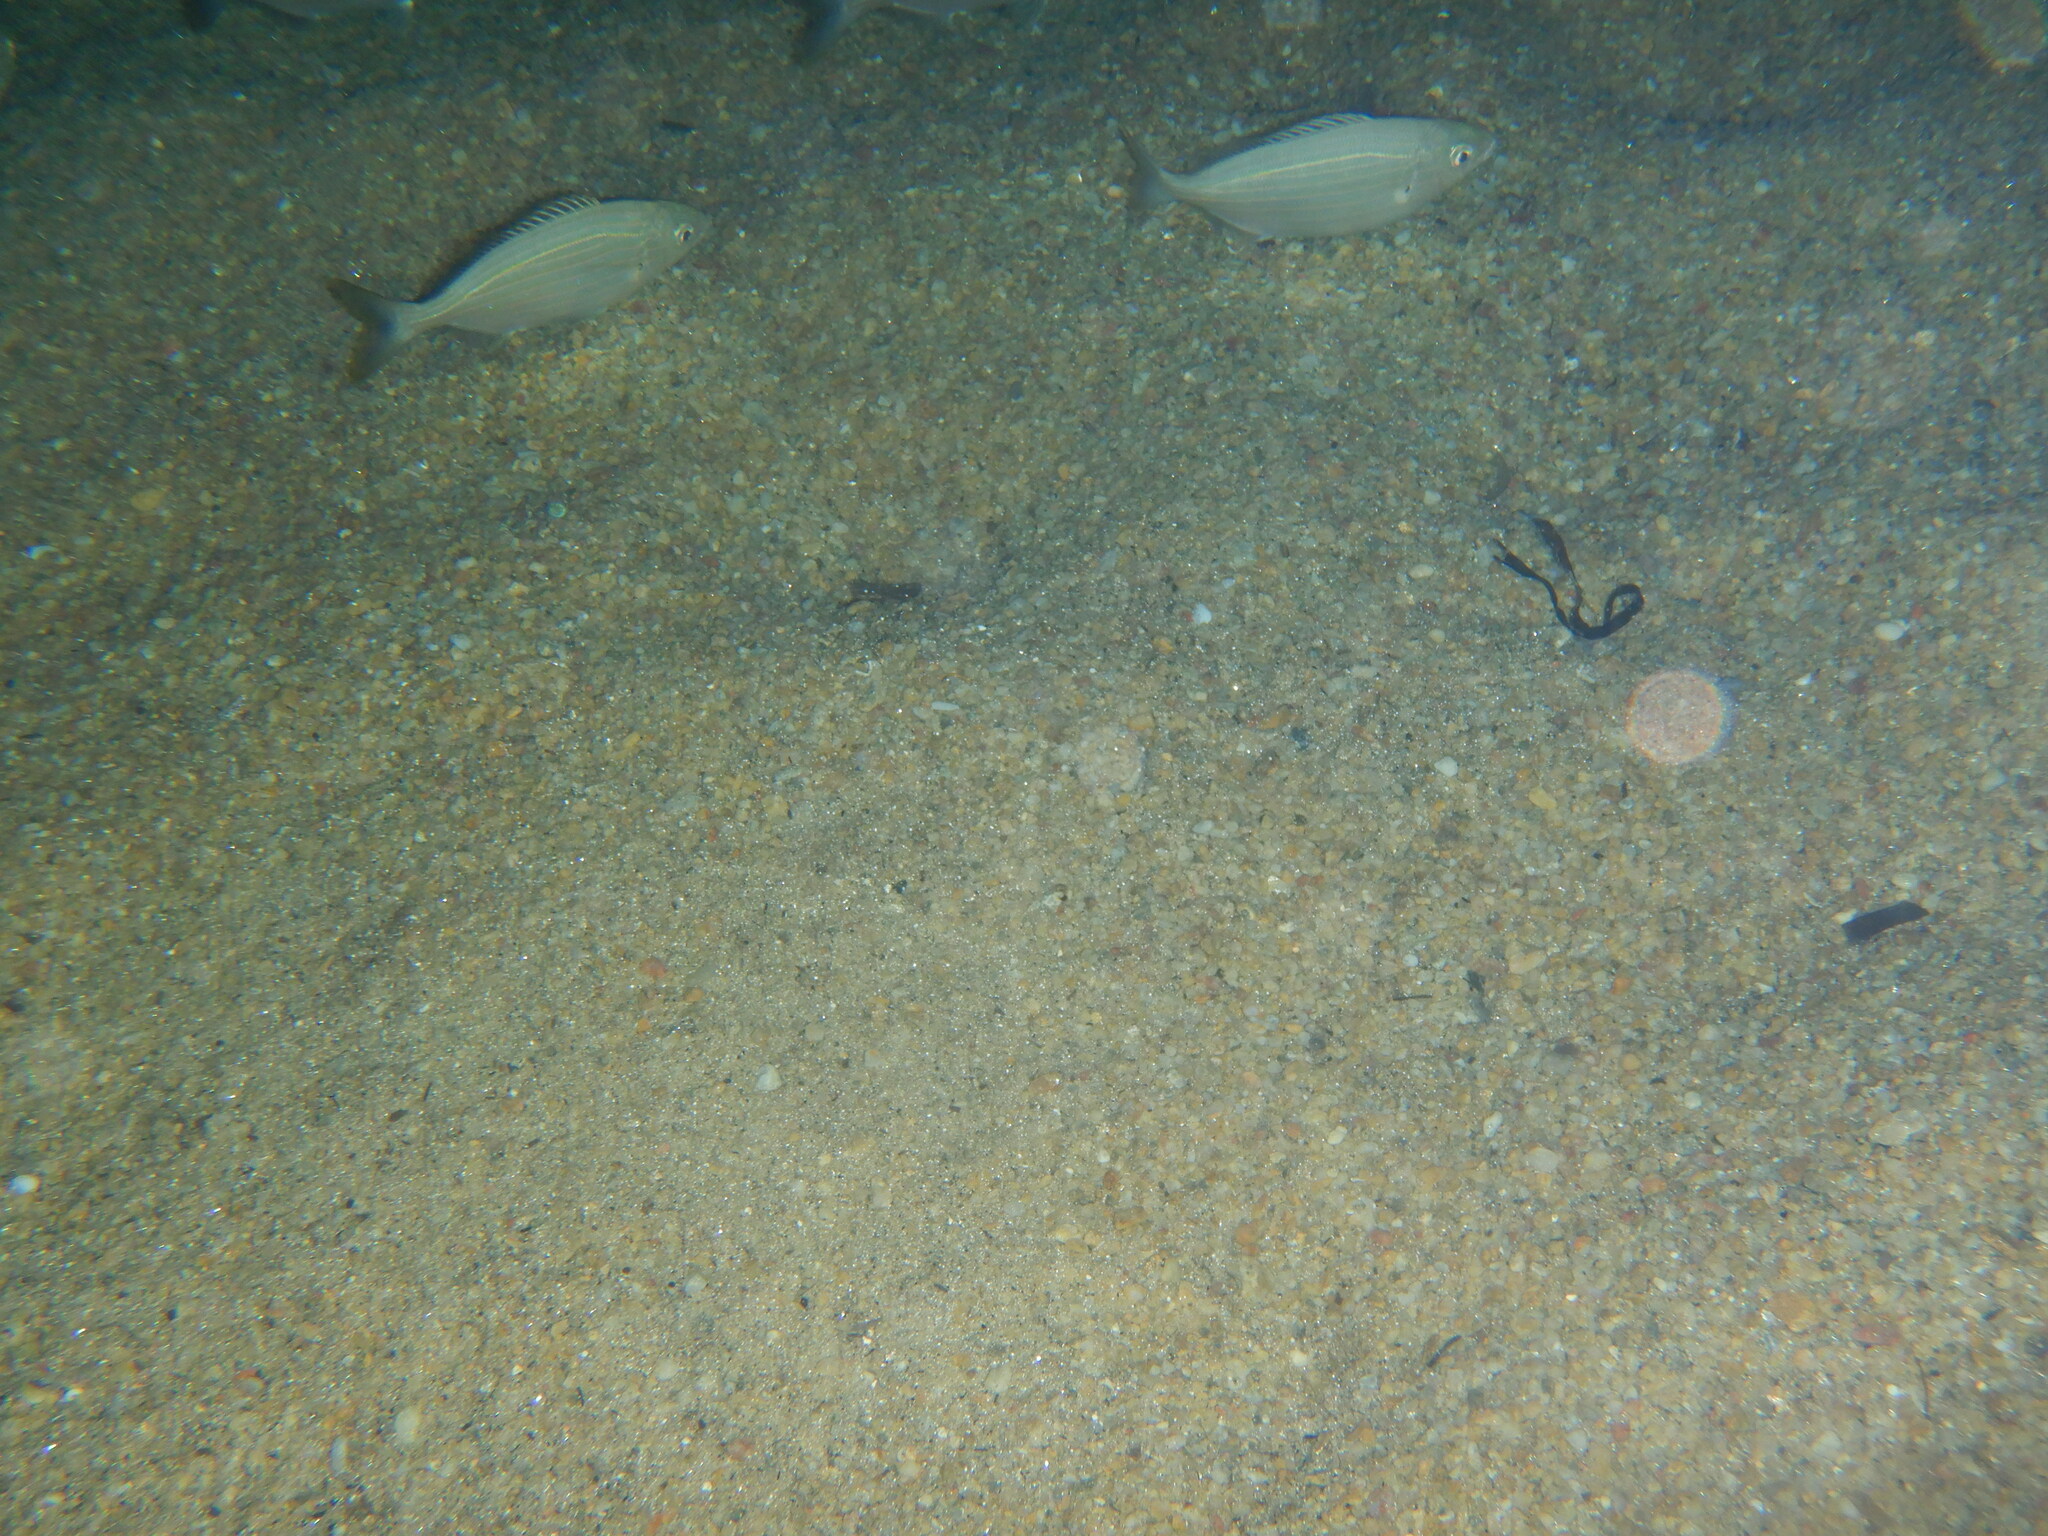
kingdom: Animalia
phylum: Chordata
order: Perciformes
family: Sparidae
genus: Sarpa
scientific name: Sarpa salpa
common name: Salema
